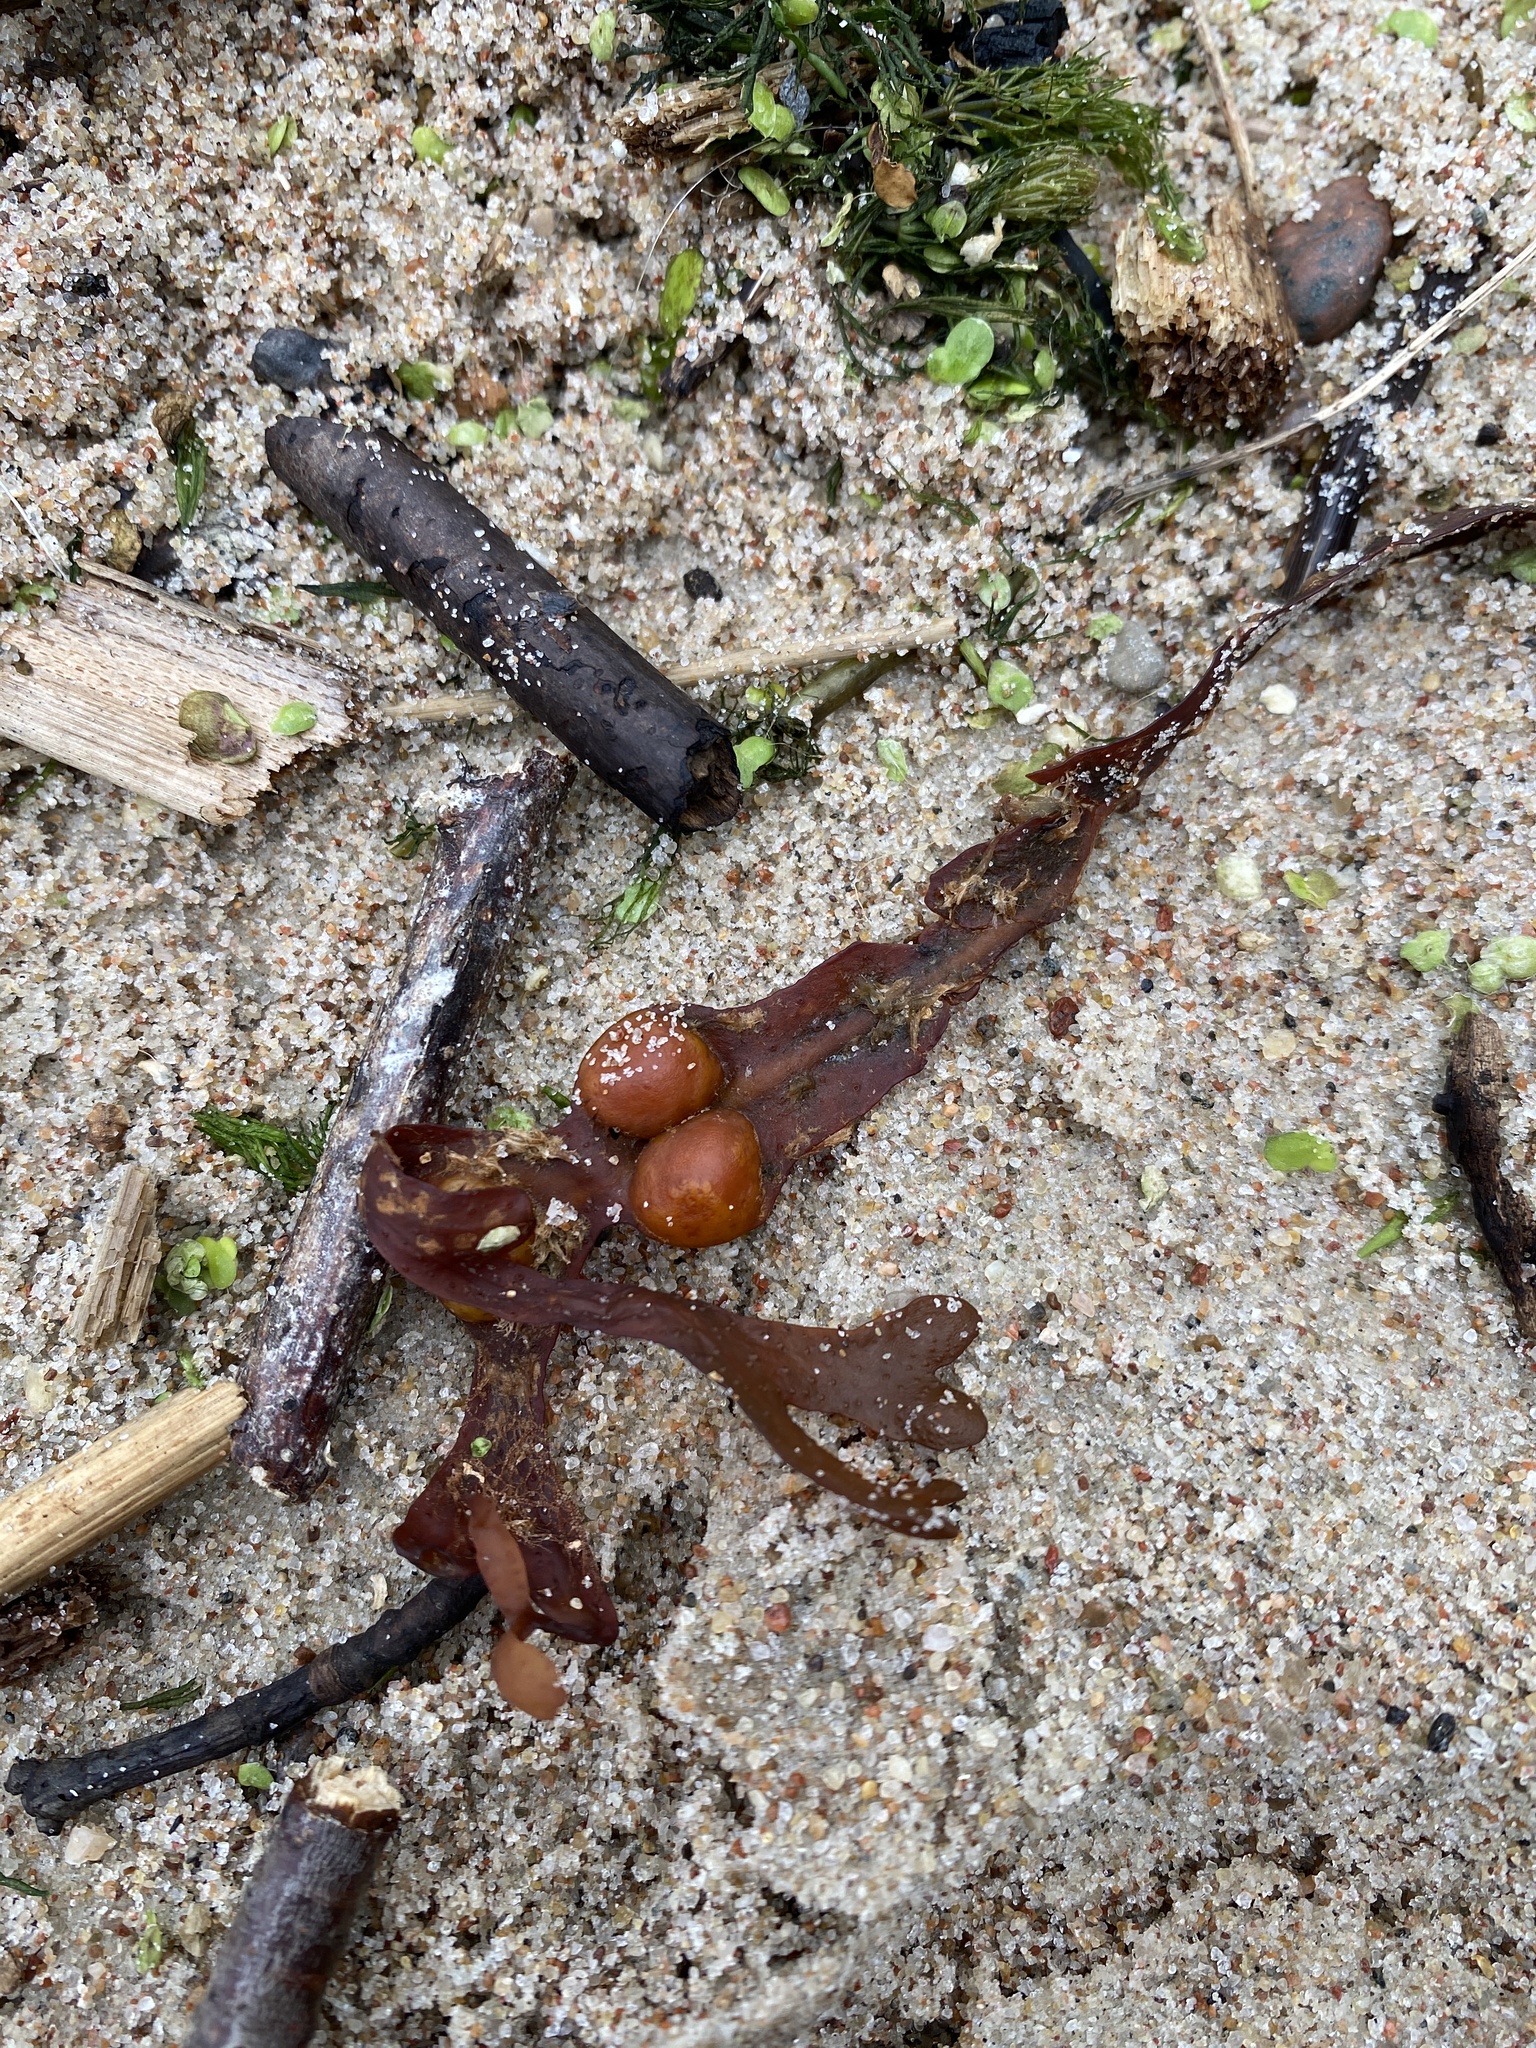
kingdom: Chromista
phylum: Ochrophyta
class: Phaeophyceae
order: Fucales
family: Fucaceae
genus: Fucus
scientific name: Fucus vesiculosus
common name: Bladder wrack
